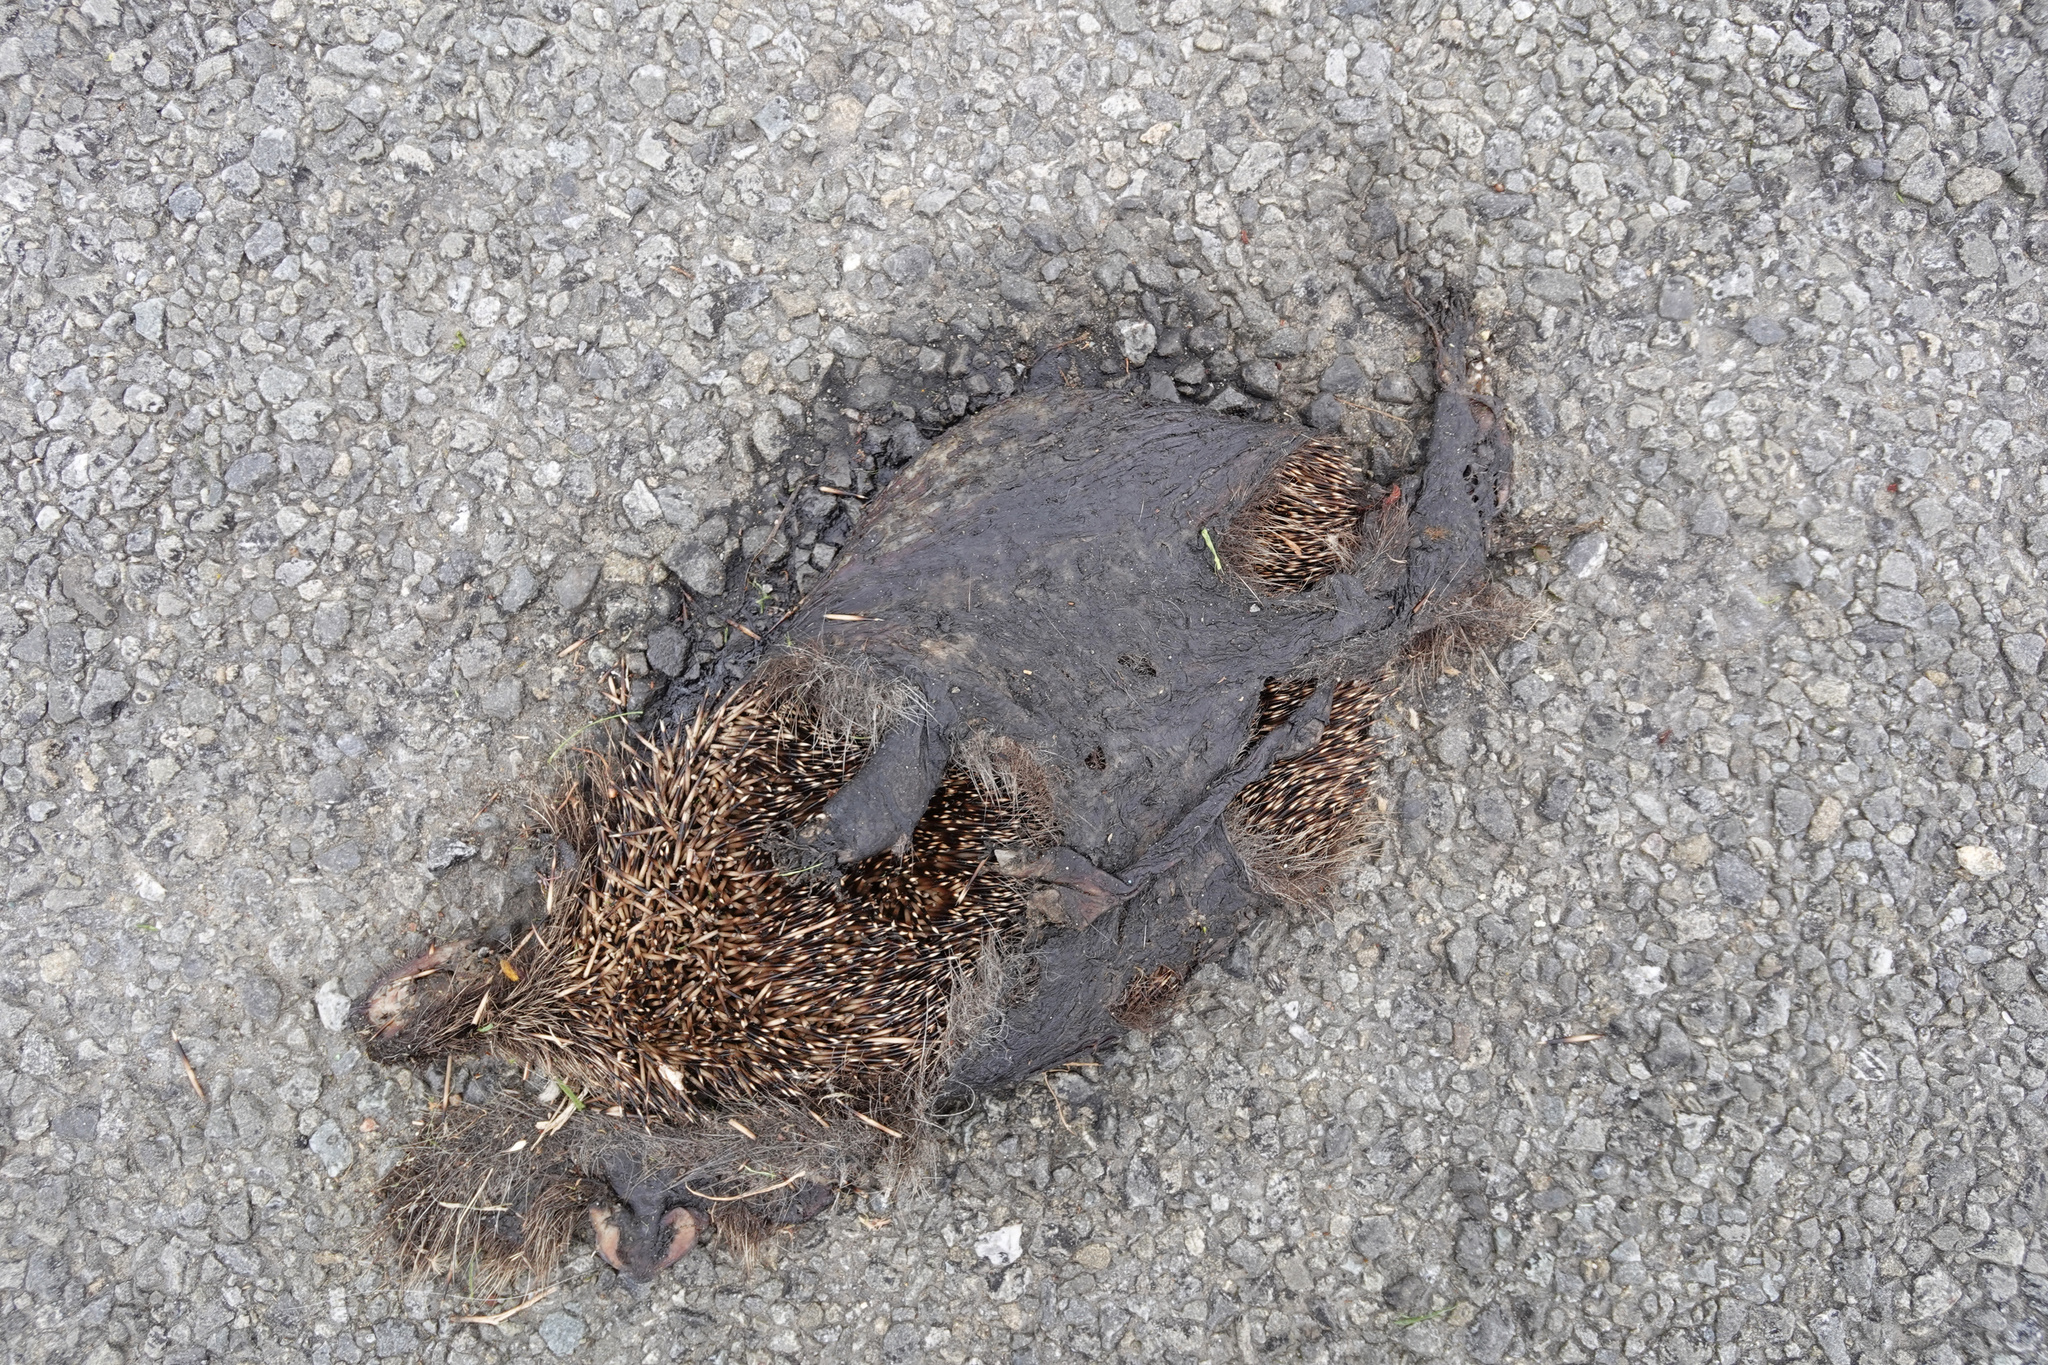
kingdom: Animalia
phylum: Chordata
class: Mammalia
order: Erinaceomorpha
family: Erinaceidae
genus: Erinaceus
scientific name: Erinaceus europaeus
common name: West european hedgehog
